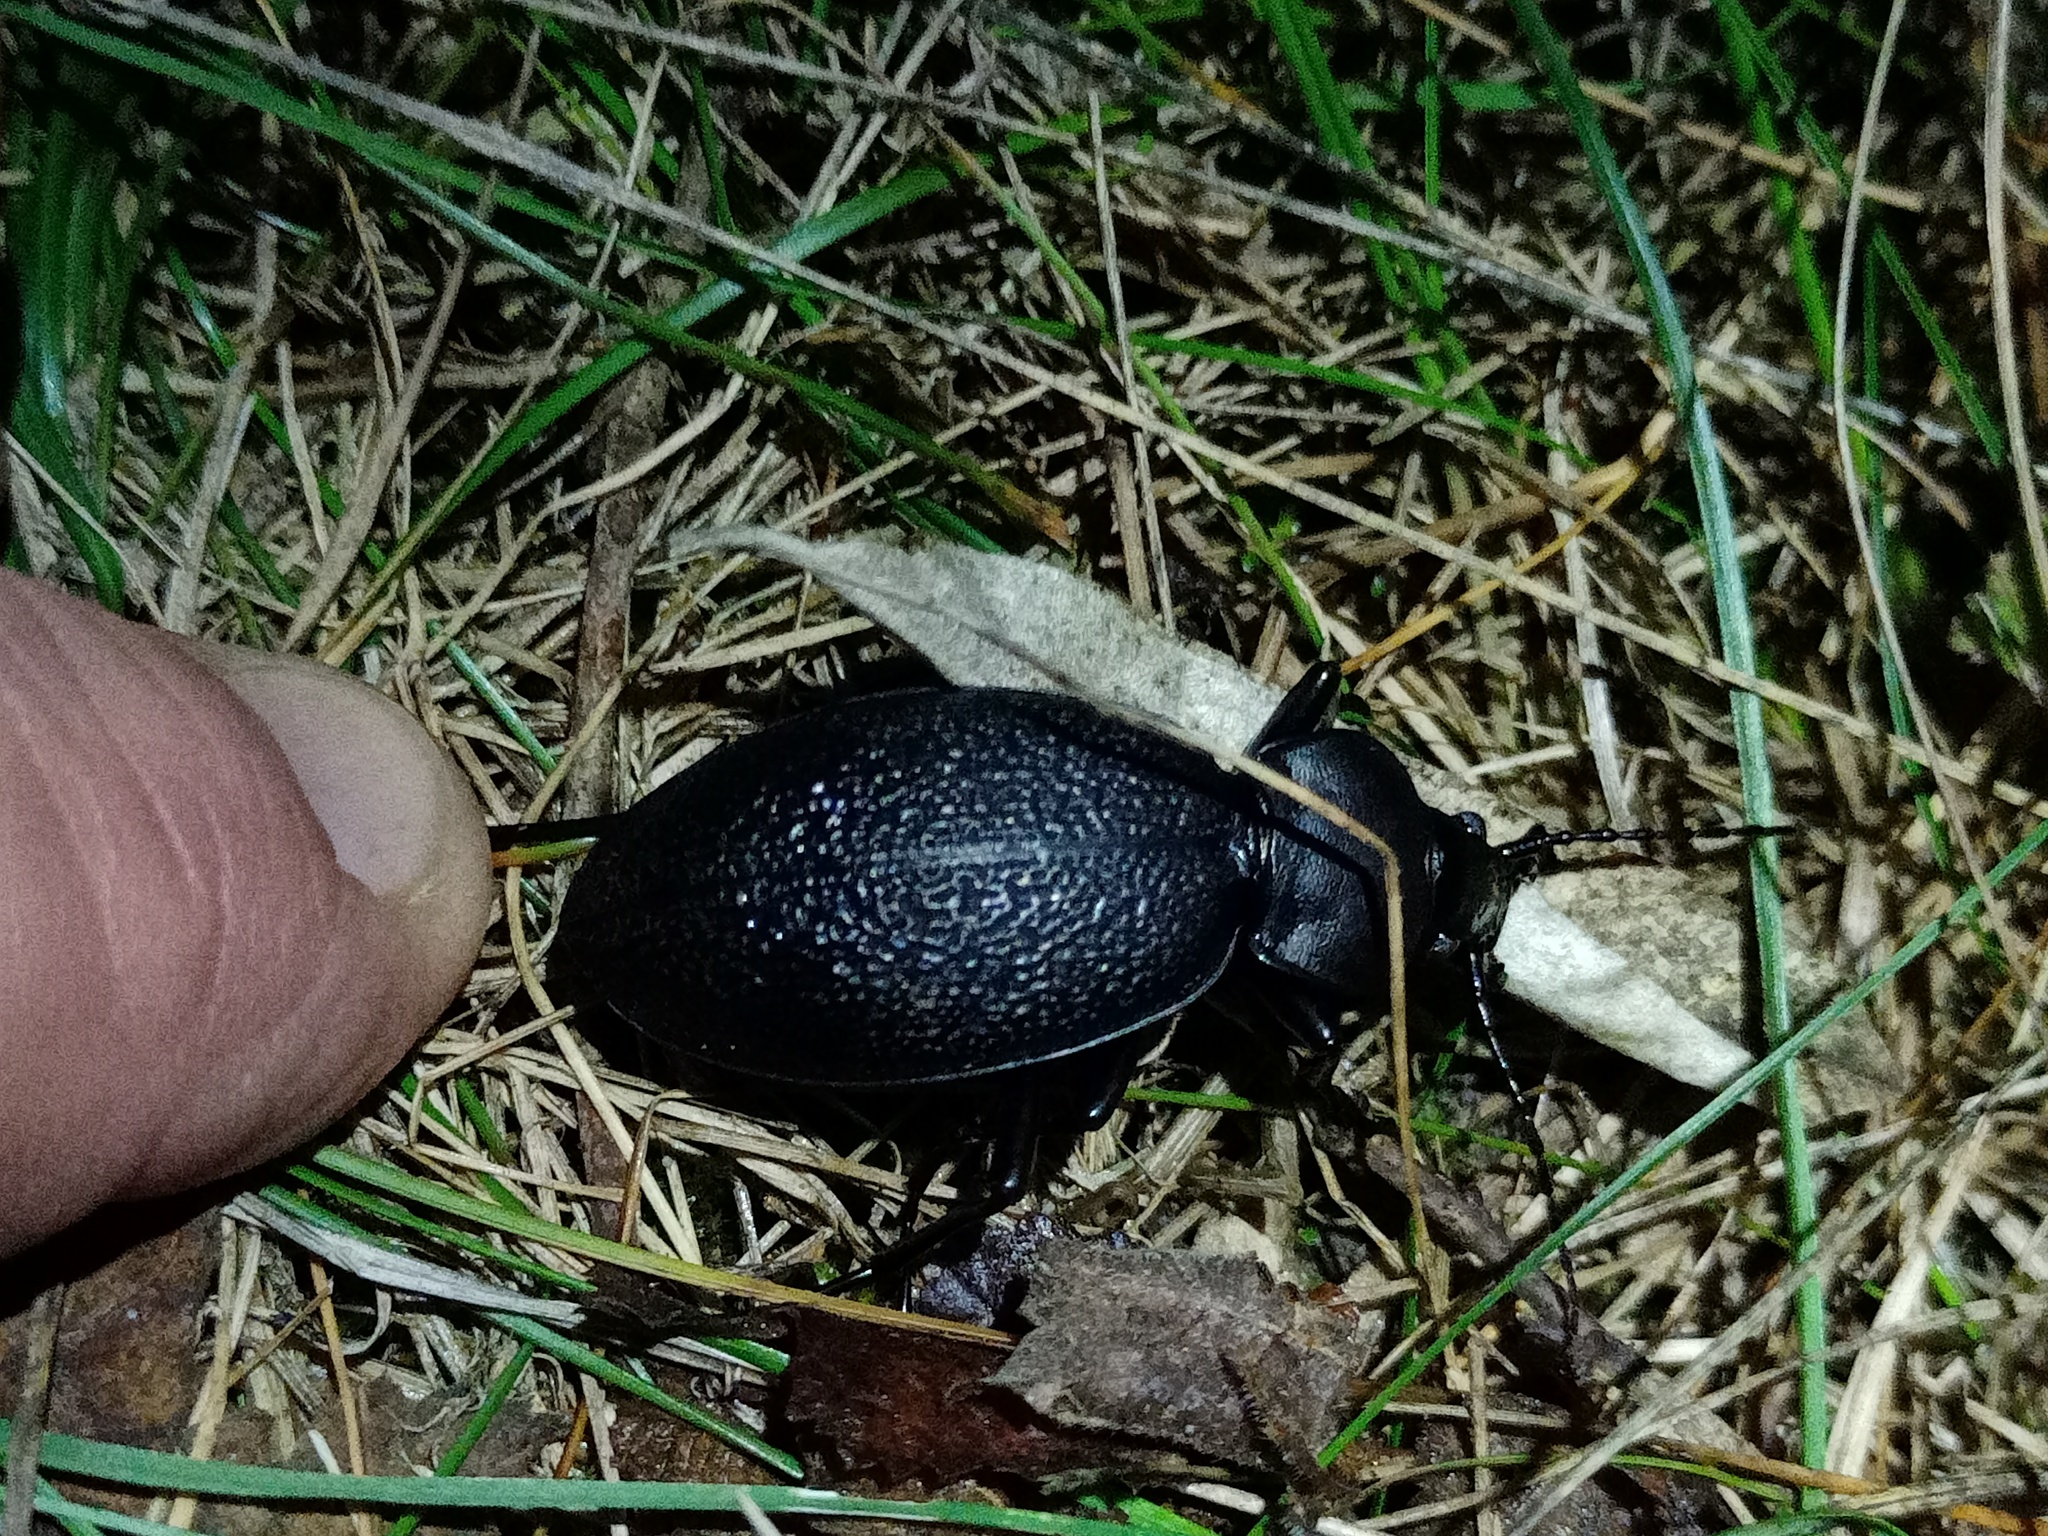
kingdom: Animalia
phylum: Arthropoda
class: Insecta
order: Coleoptera
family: Carabidae
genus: Carabus
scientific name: Carabus coriaceus
